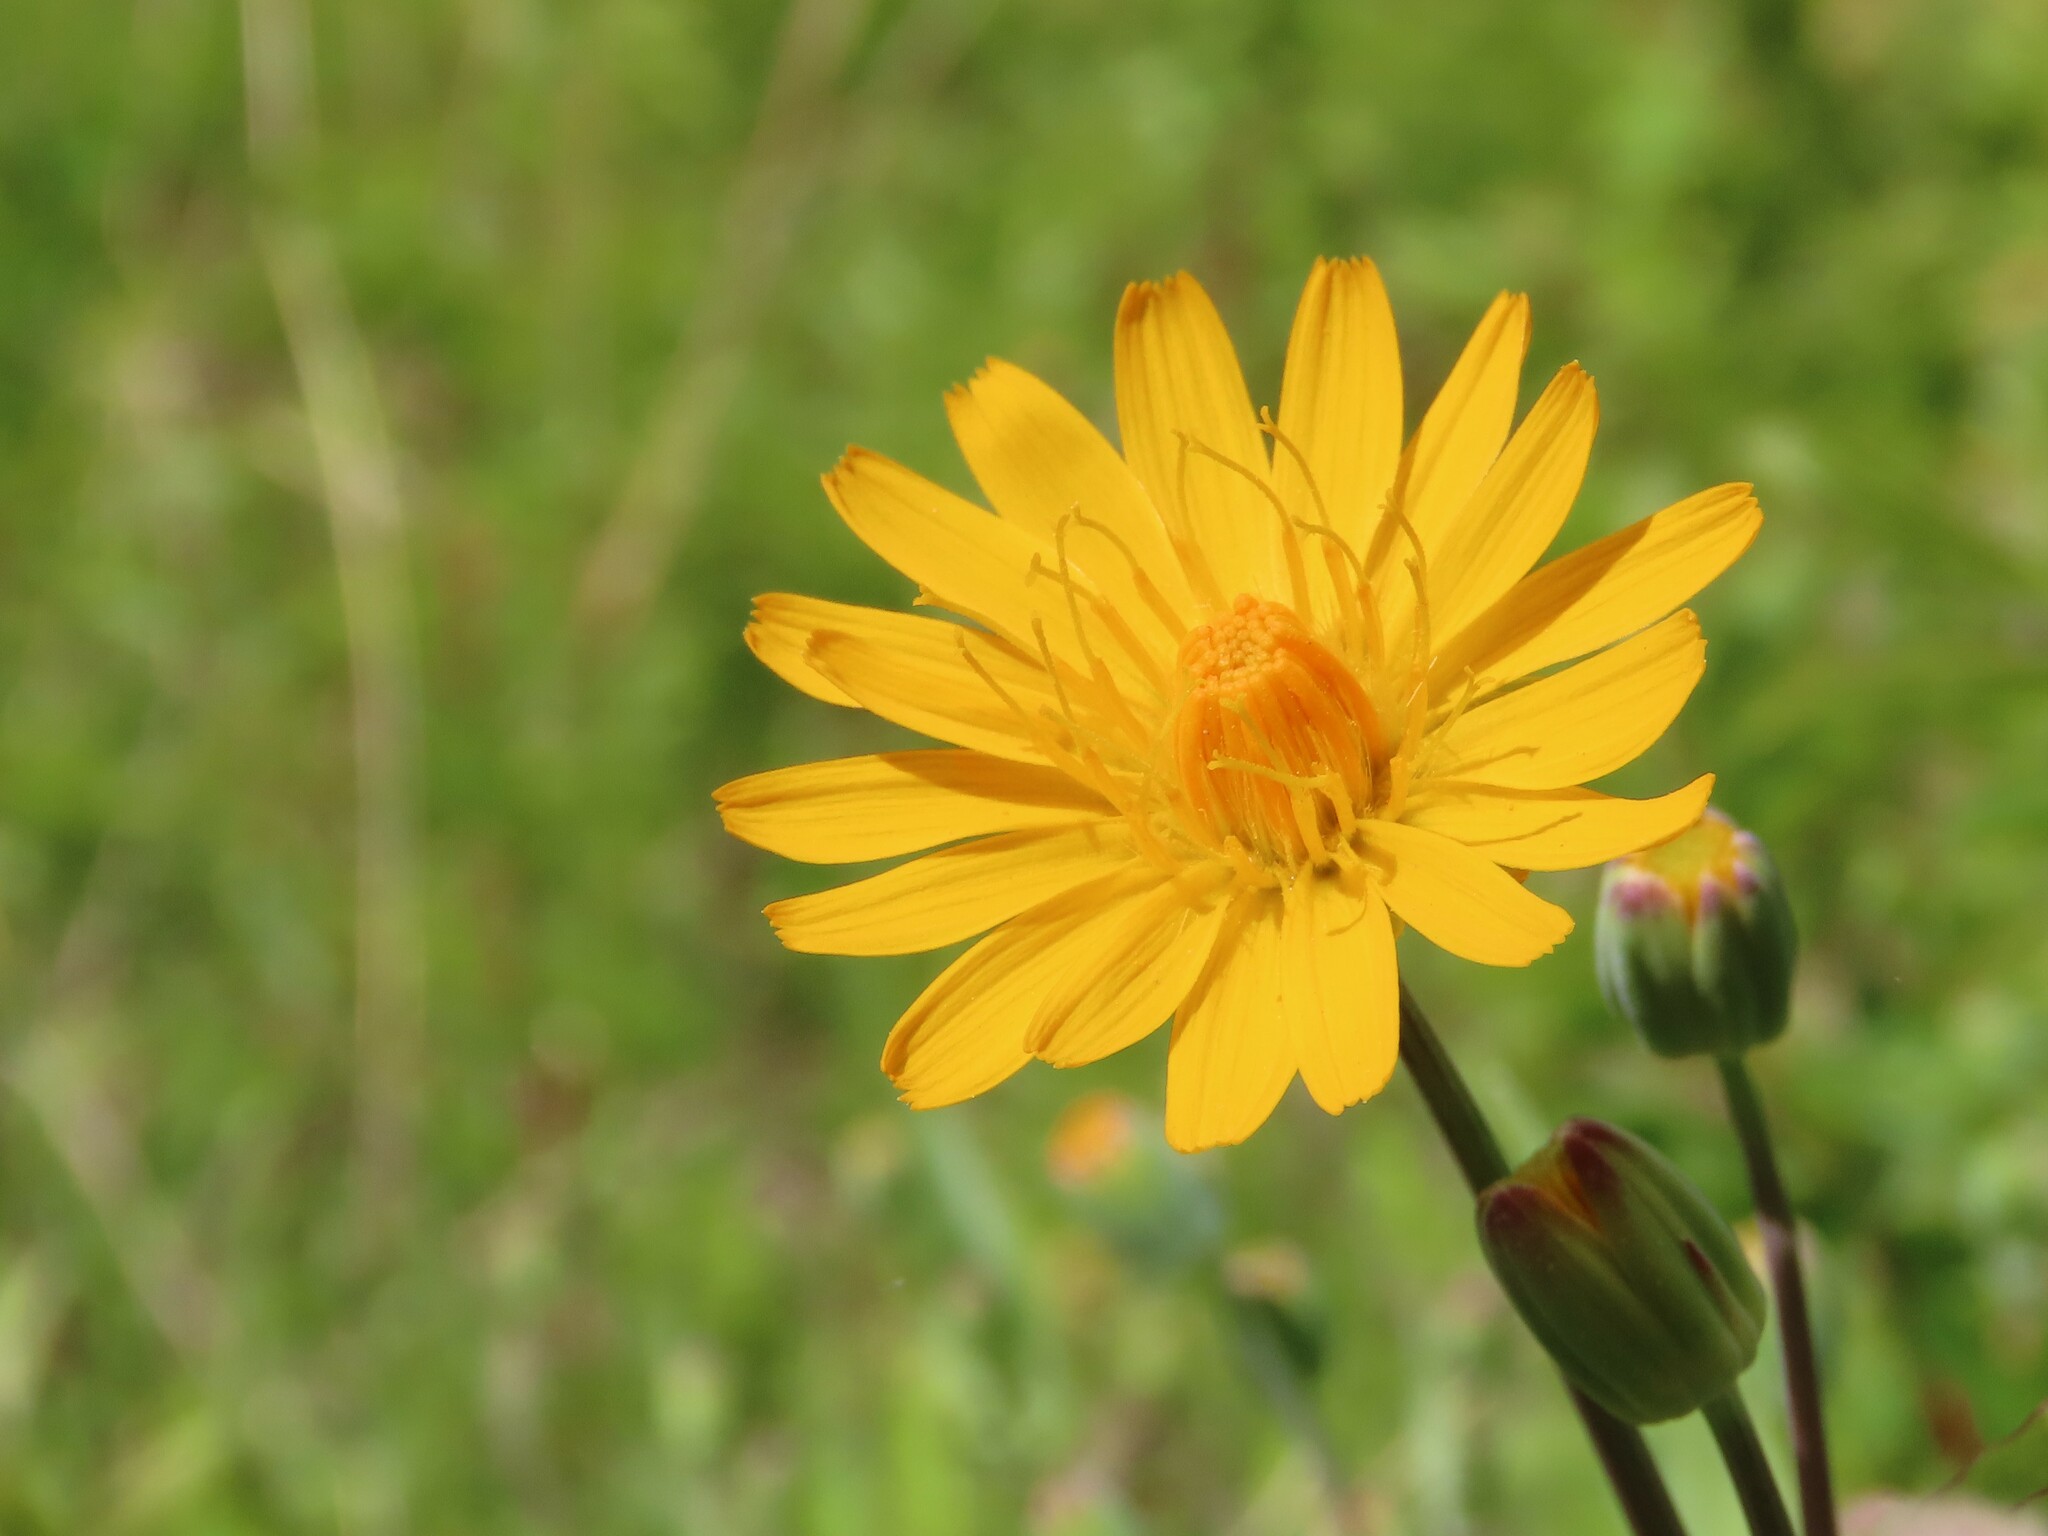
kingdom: Plantae
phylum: Tracheophyta
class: Magnoliopsida
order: Asterales
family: Asteraceae
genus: Krigia
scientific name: Krigia biflora
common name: Orange dwarf-dandelion
